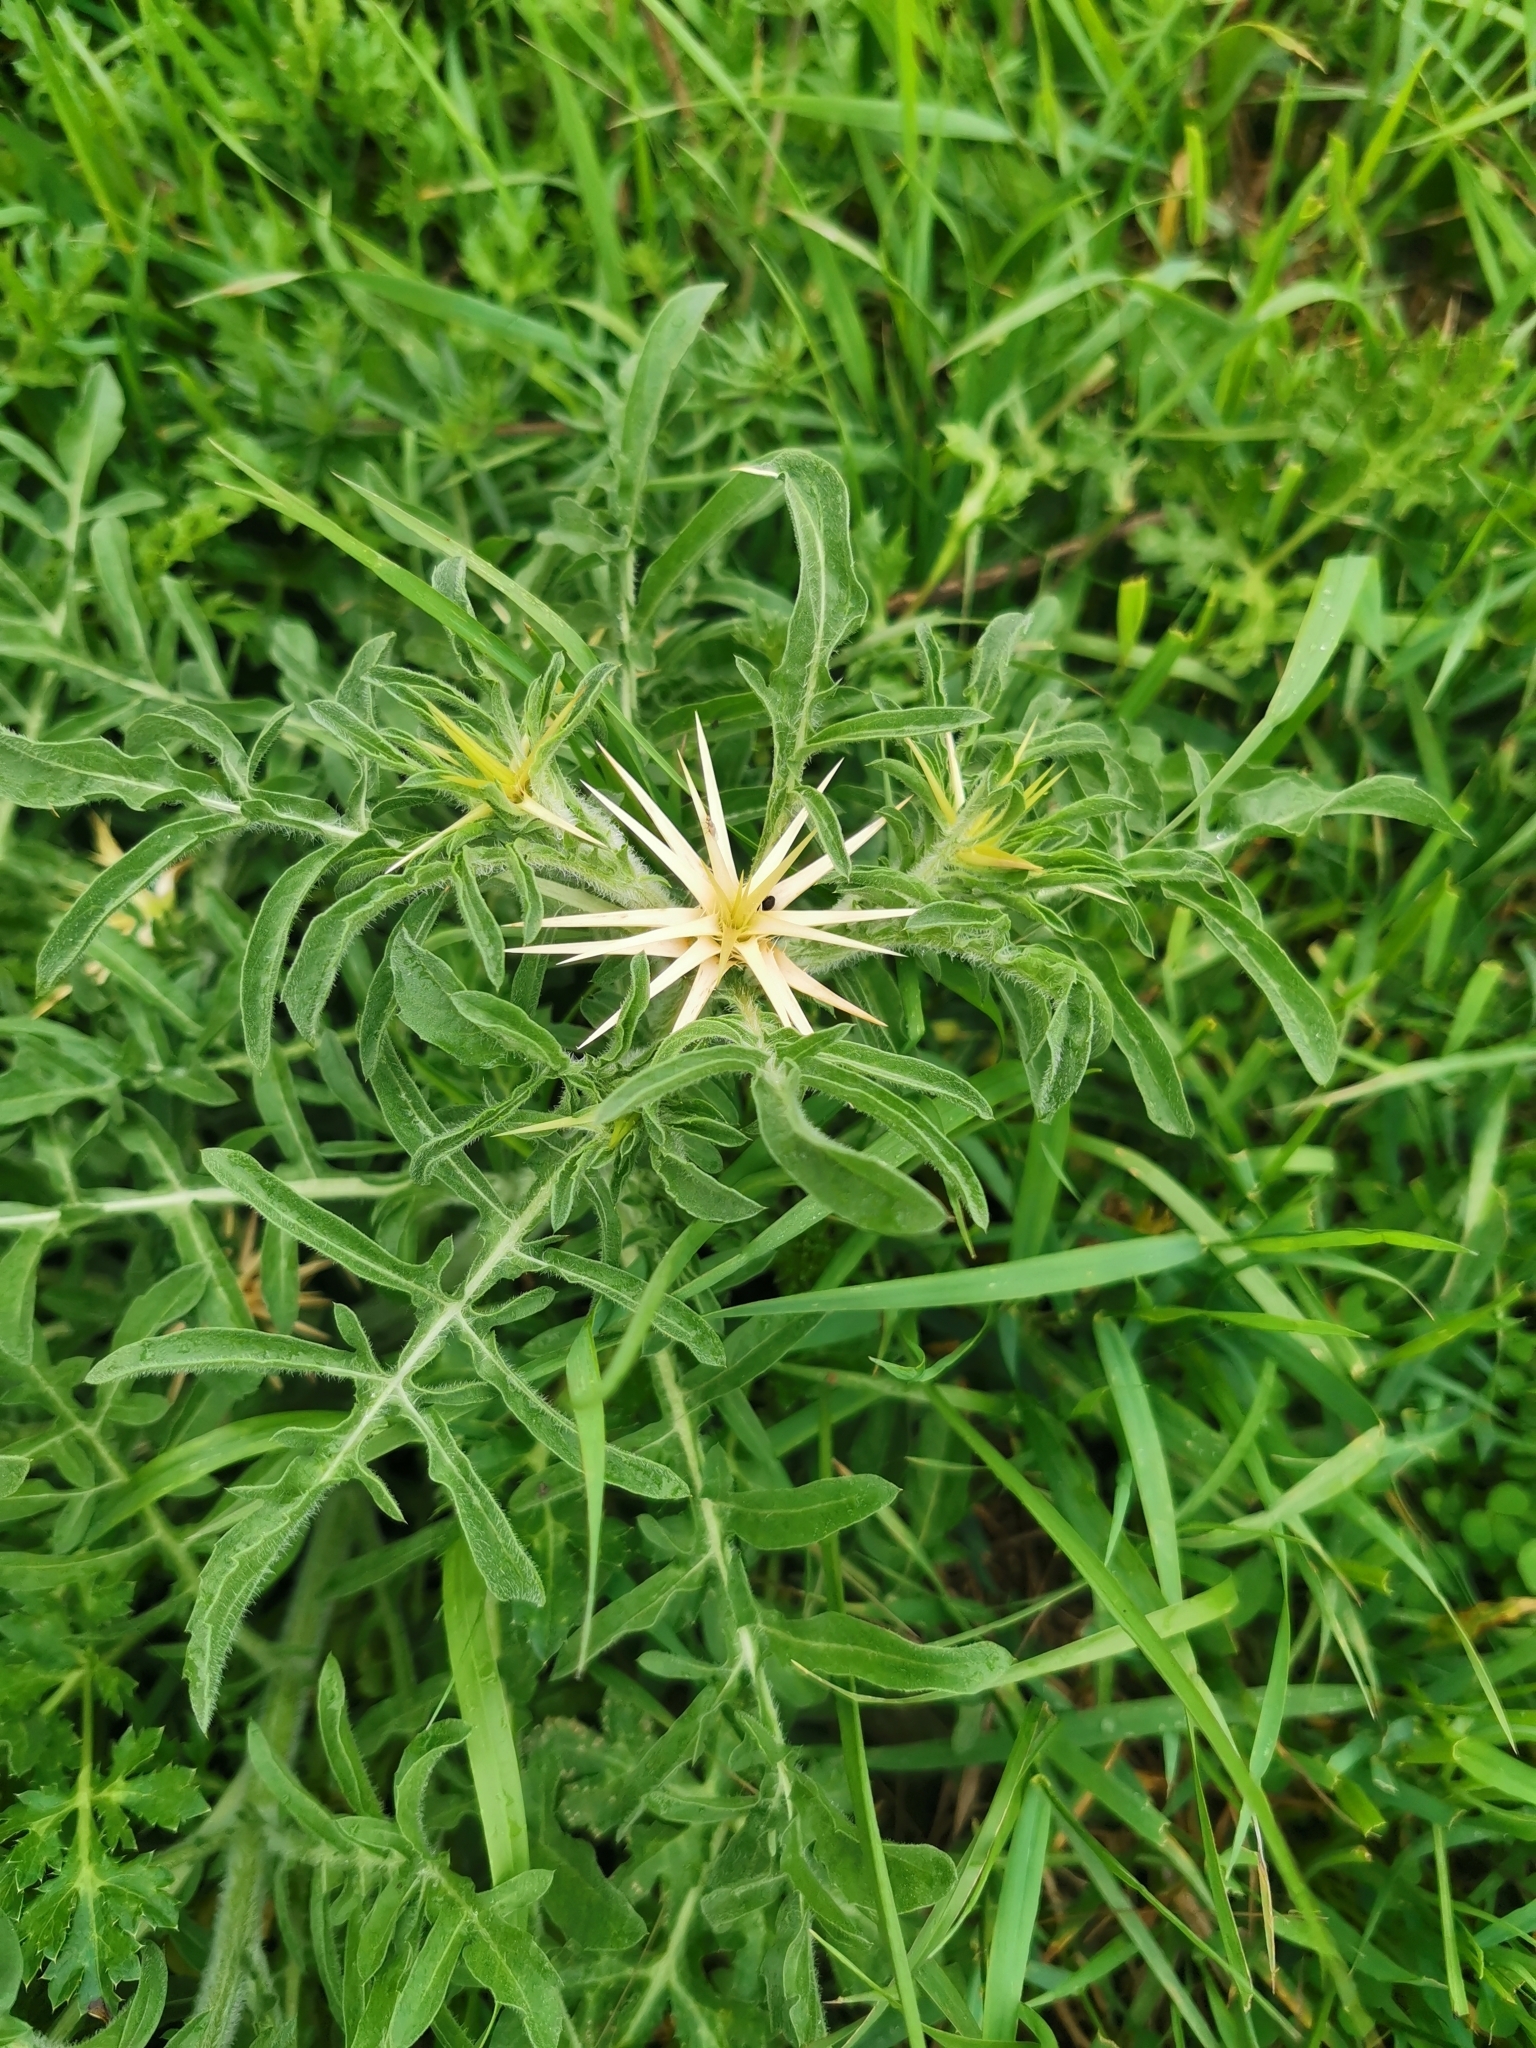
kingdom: Plantae
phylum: Tracheophyta
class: Magnoliopsida
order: Asterales
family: Asteraceae
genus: Centaurea
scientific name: Centaurea iberica
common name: Iberian knapweed
